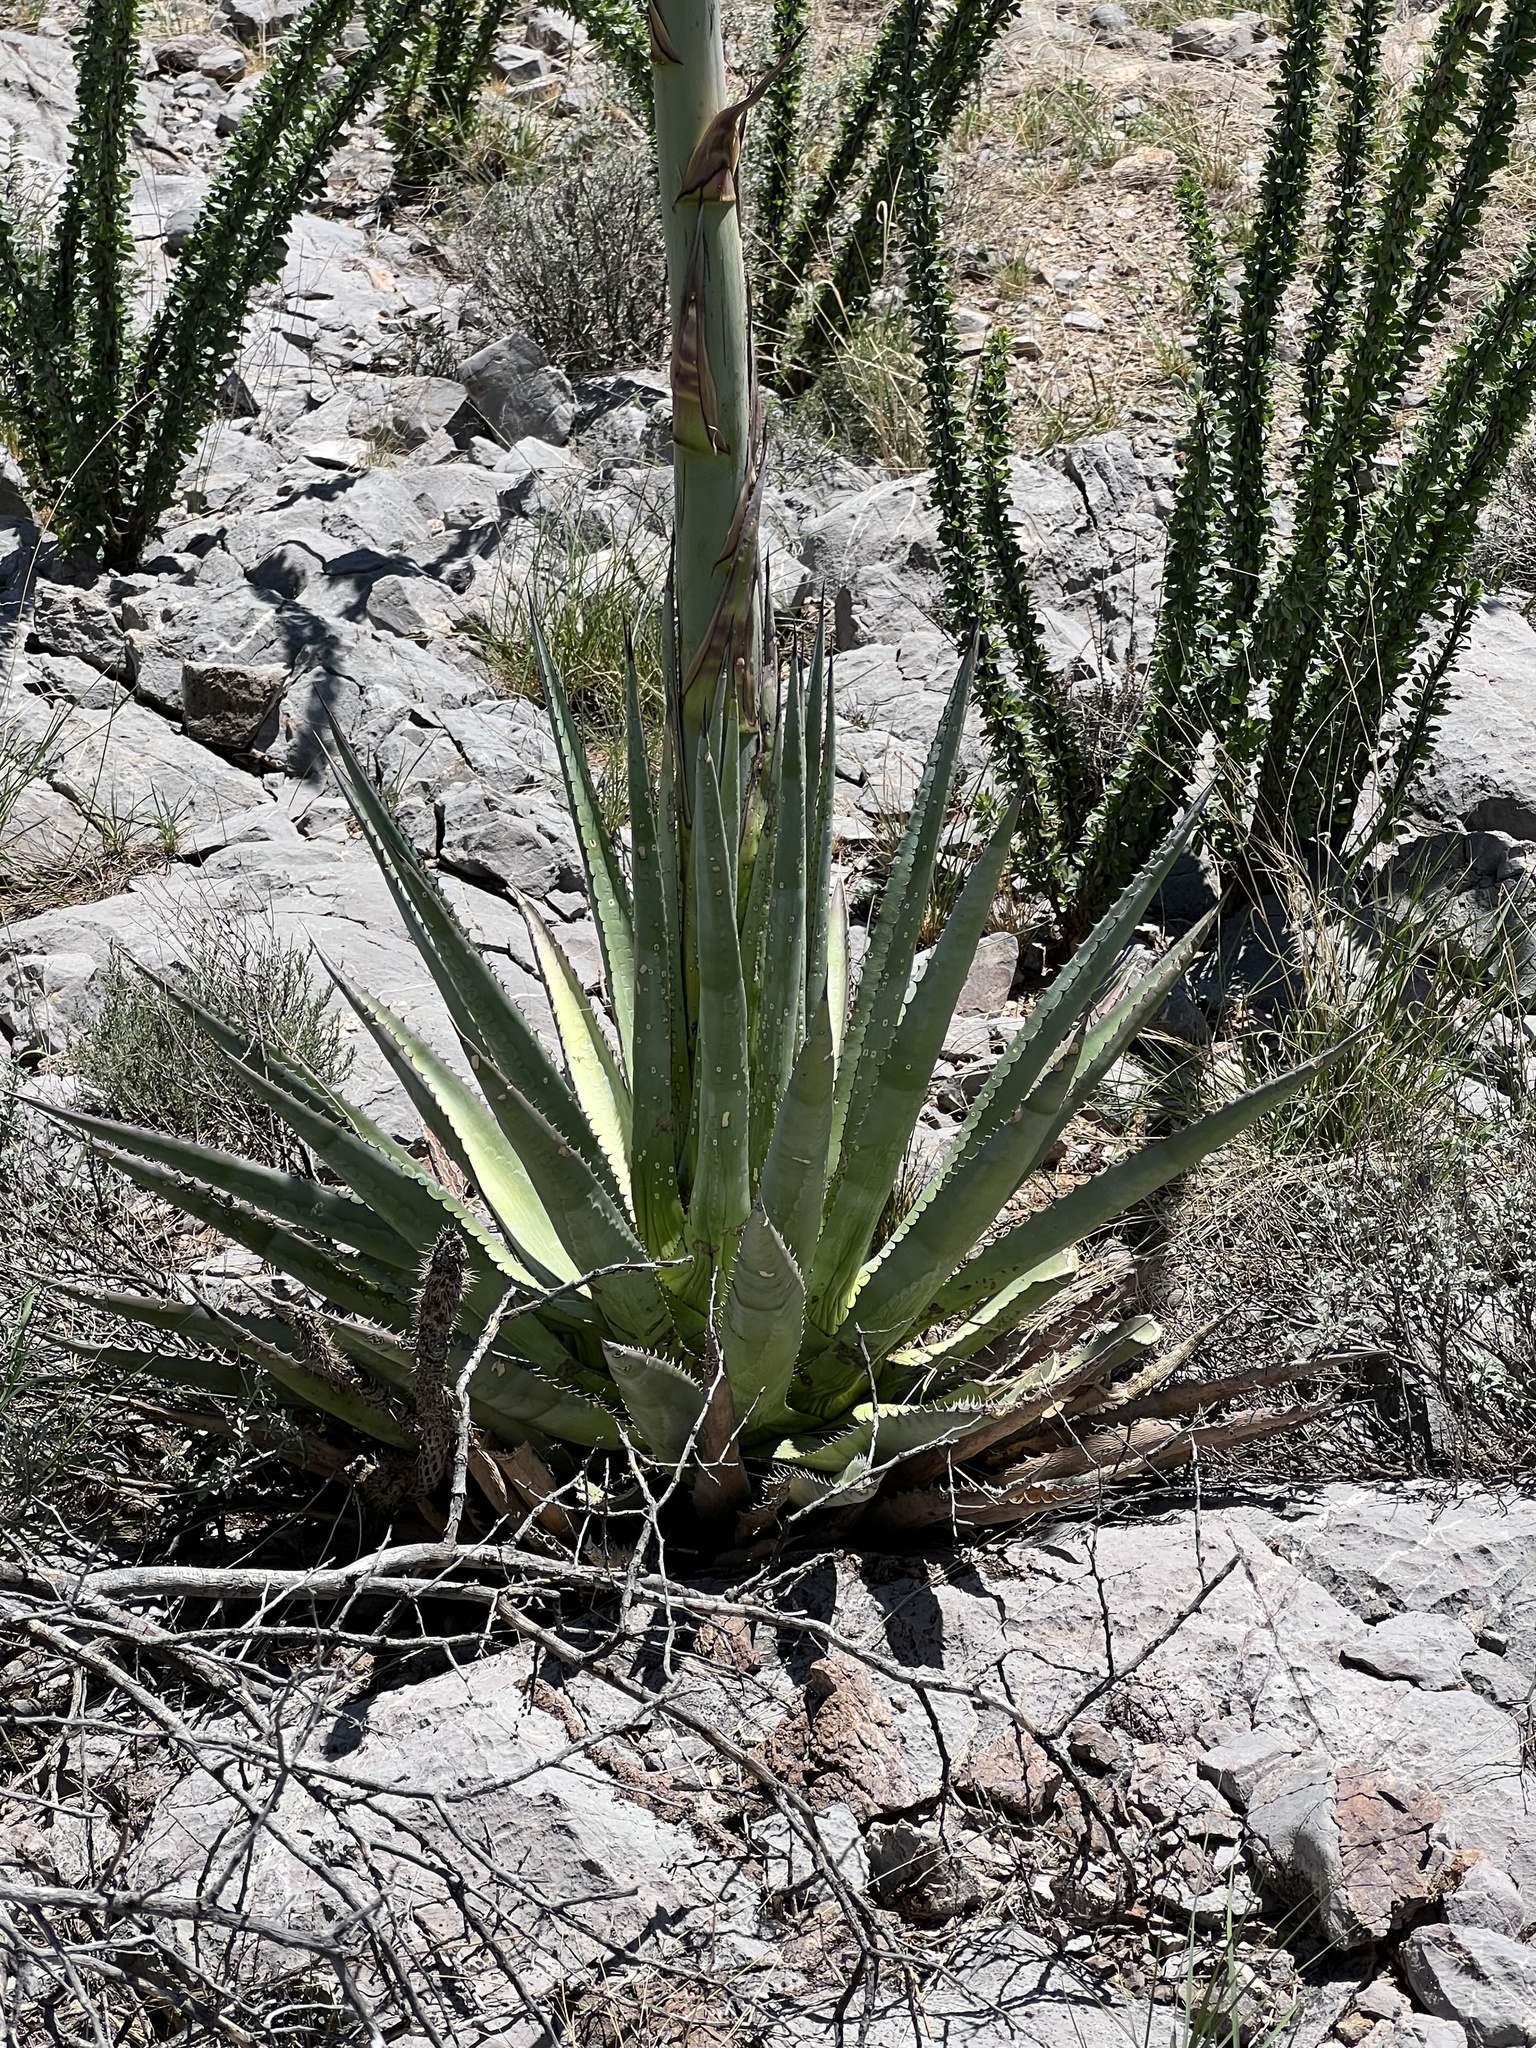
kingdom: Plantae
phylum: Tracheophyta
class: Liliopsida
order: Asparagales
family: Asparagaceae
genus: Agave
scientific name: Agave palmeri
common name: Palmer agave
